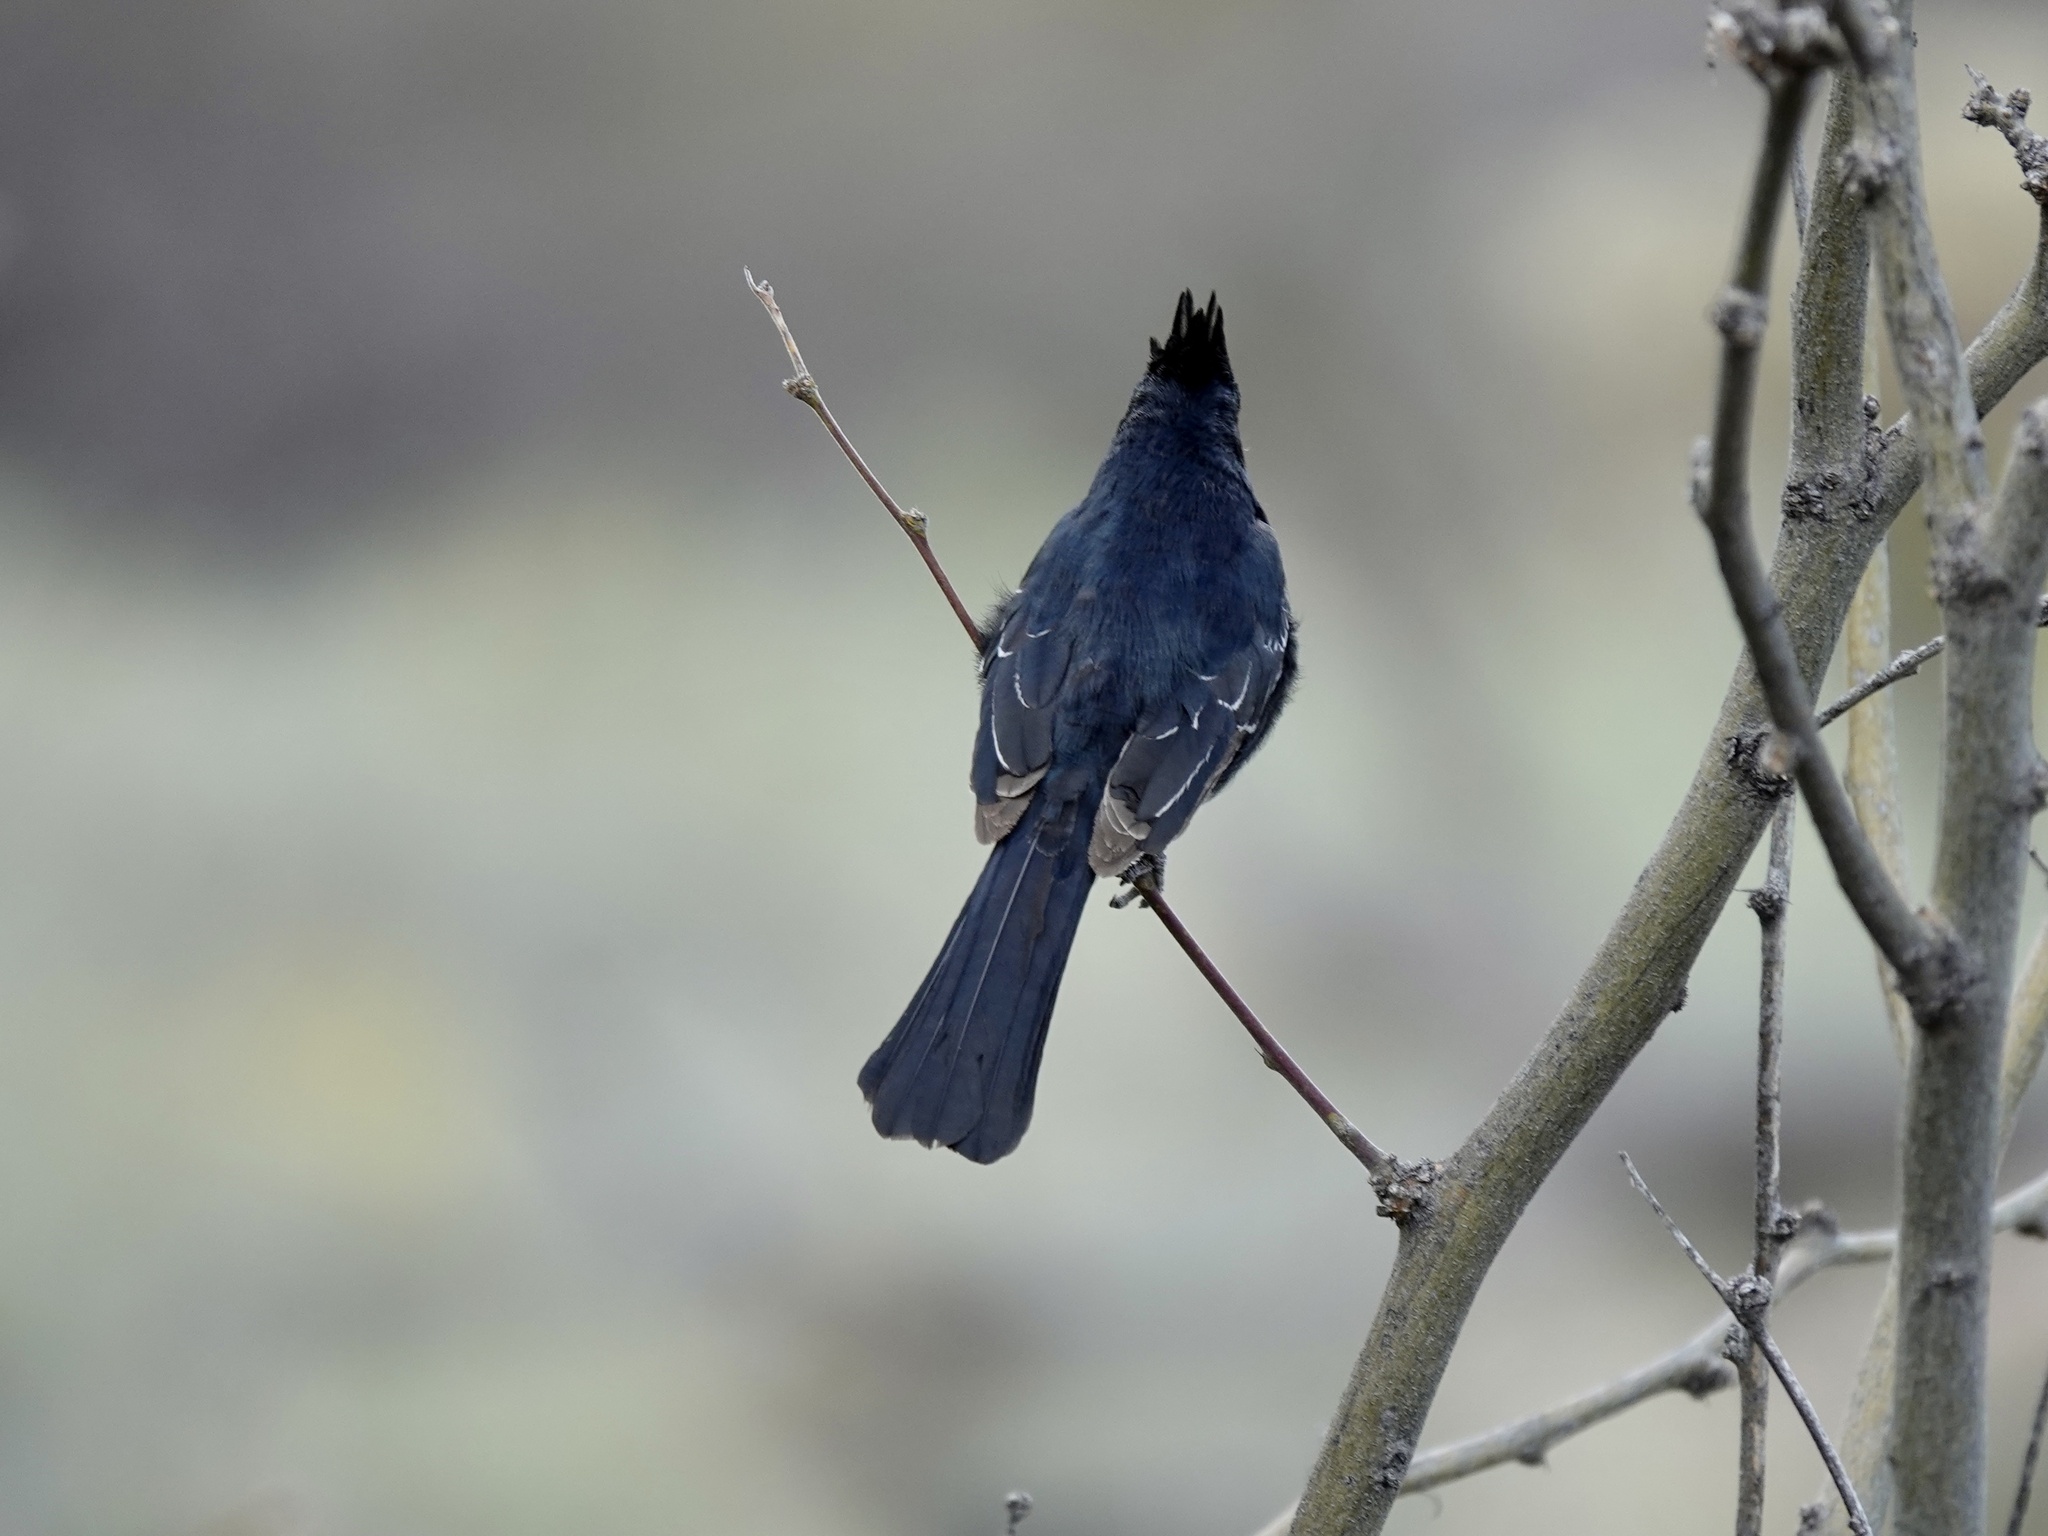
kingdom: Animalia
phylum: Chordata
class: Aves
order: Passeriformes
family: Ptilogonatidae
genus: Phainopepla
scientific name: Phainopepla nitens
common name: Phainopepla
